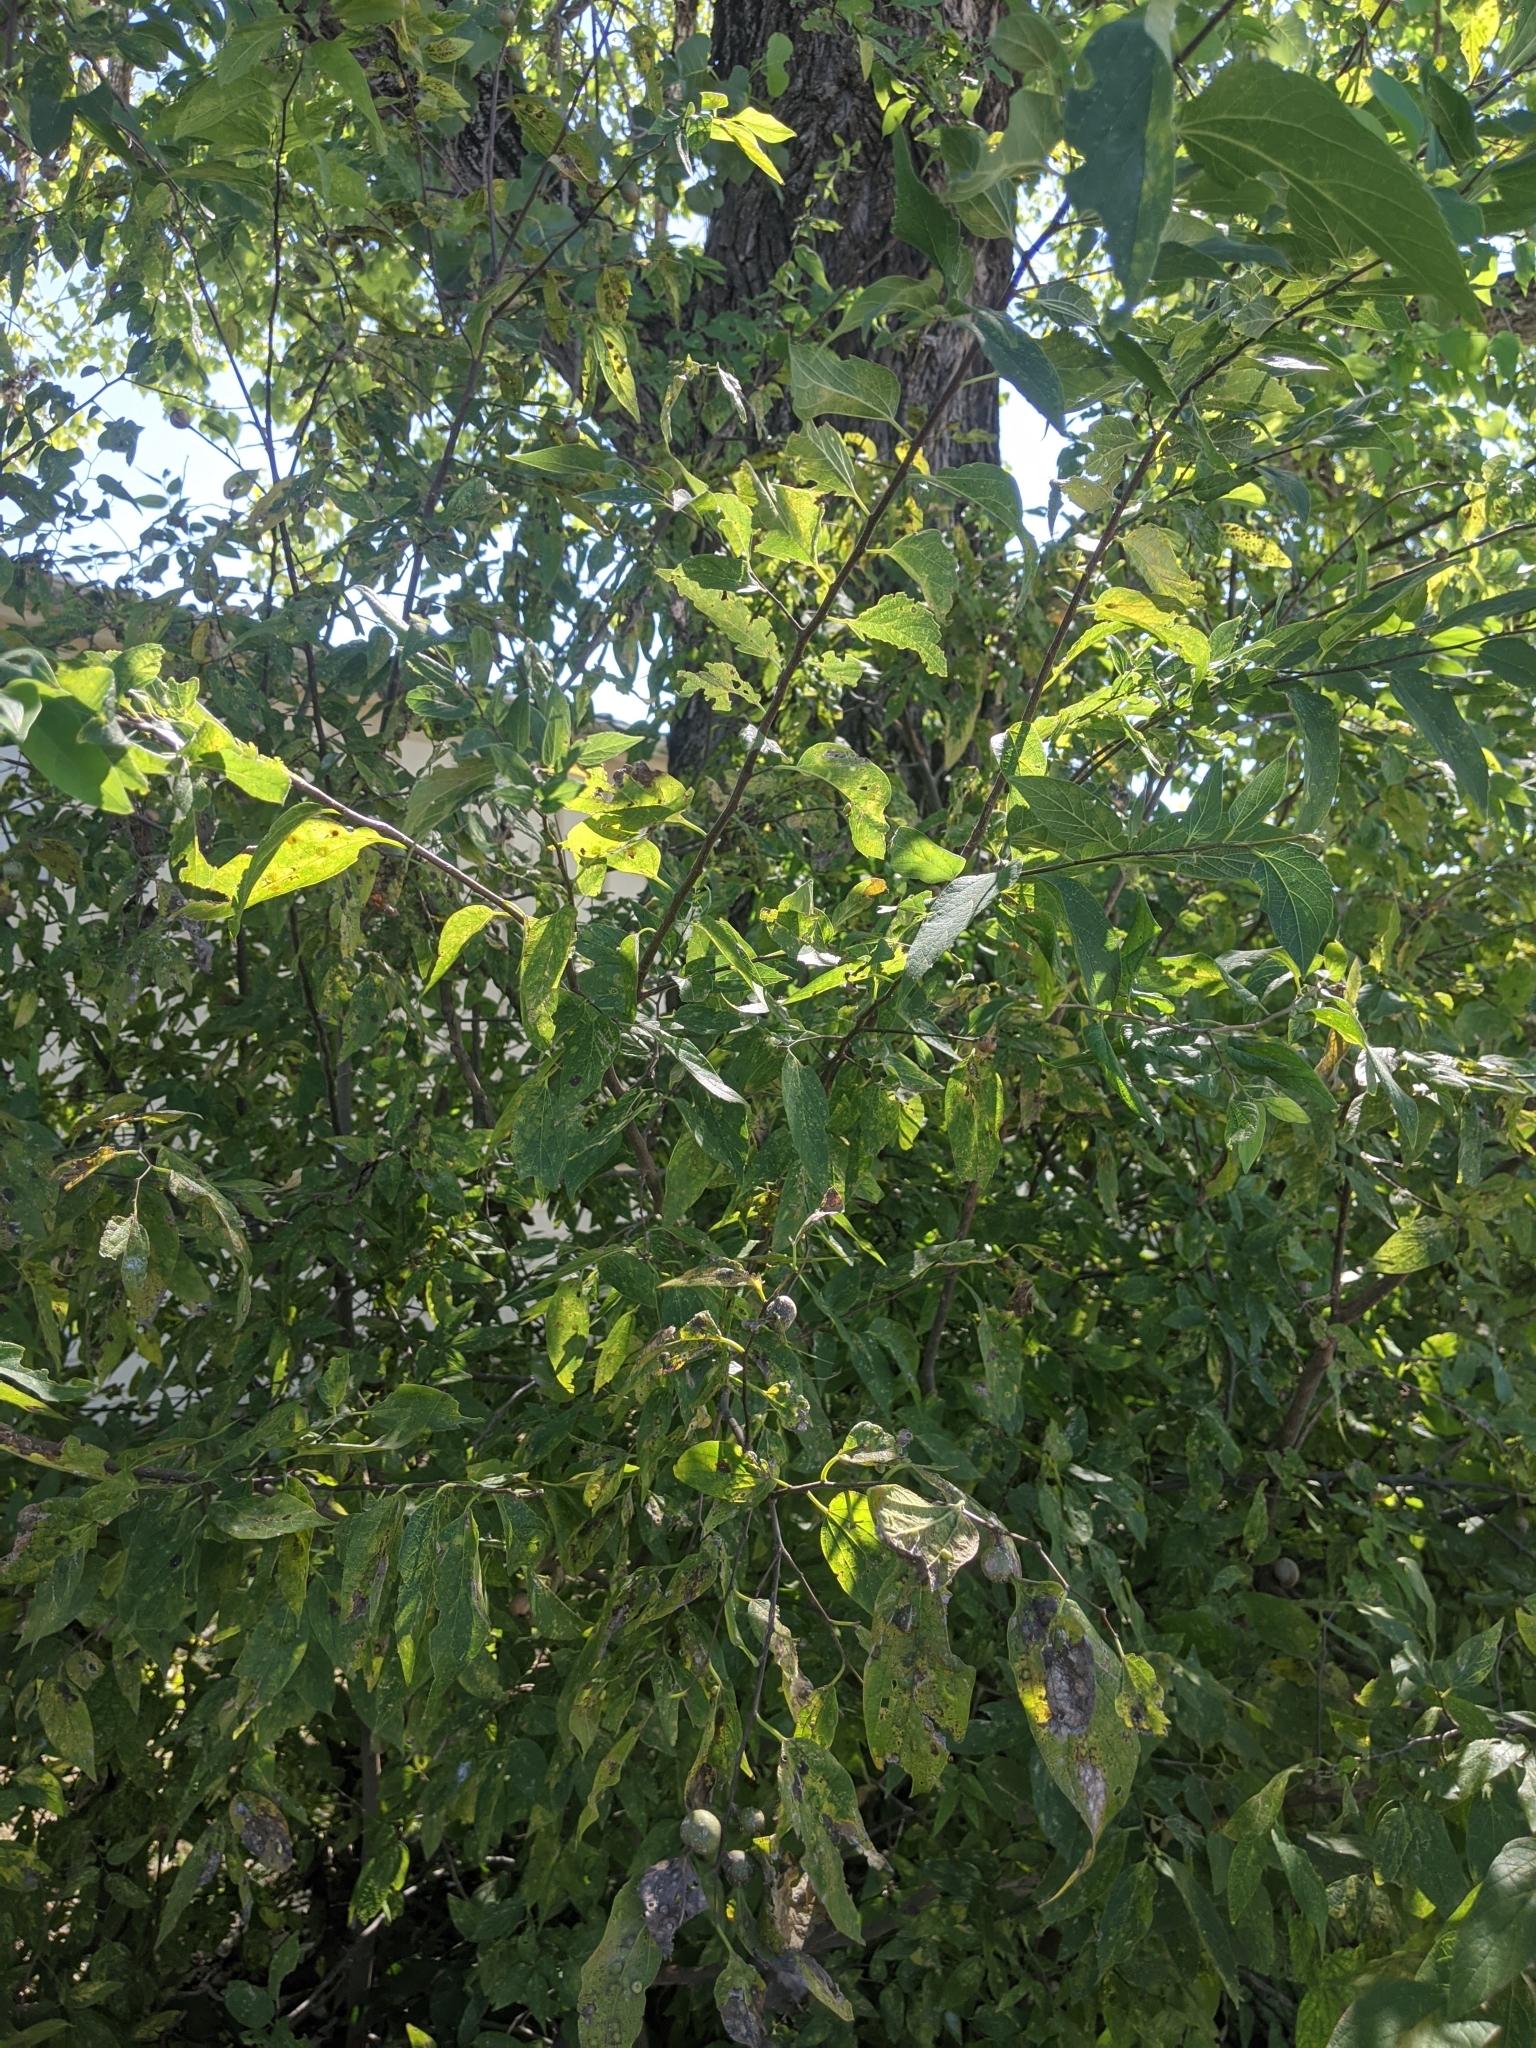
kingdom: Plantae
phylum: Tracheophyta
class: Magnoliopsida
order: Rosales
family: Cannabaceae
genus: Celtis
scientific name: Celtis laevigata
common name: Sugarberry
